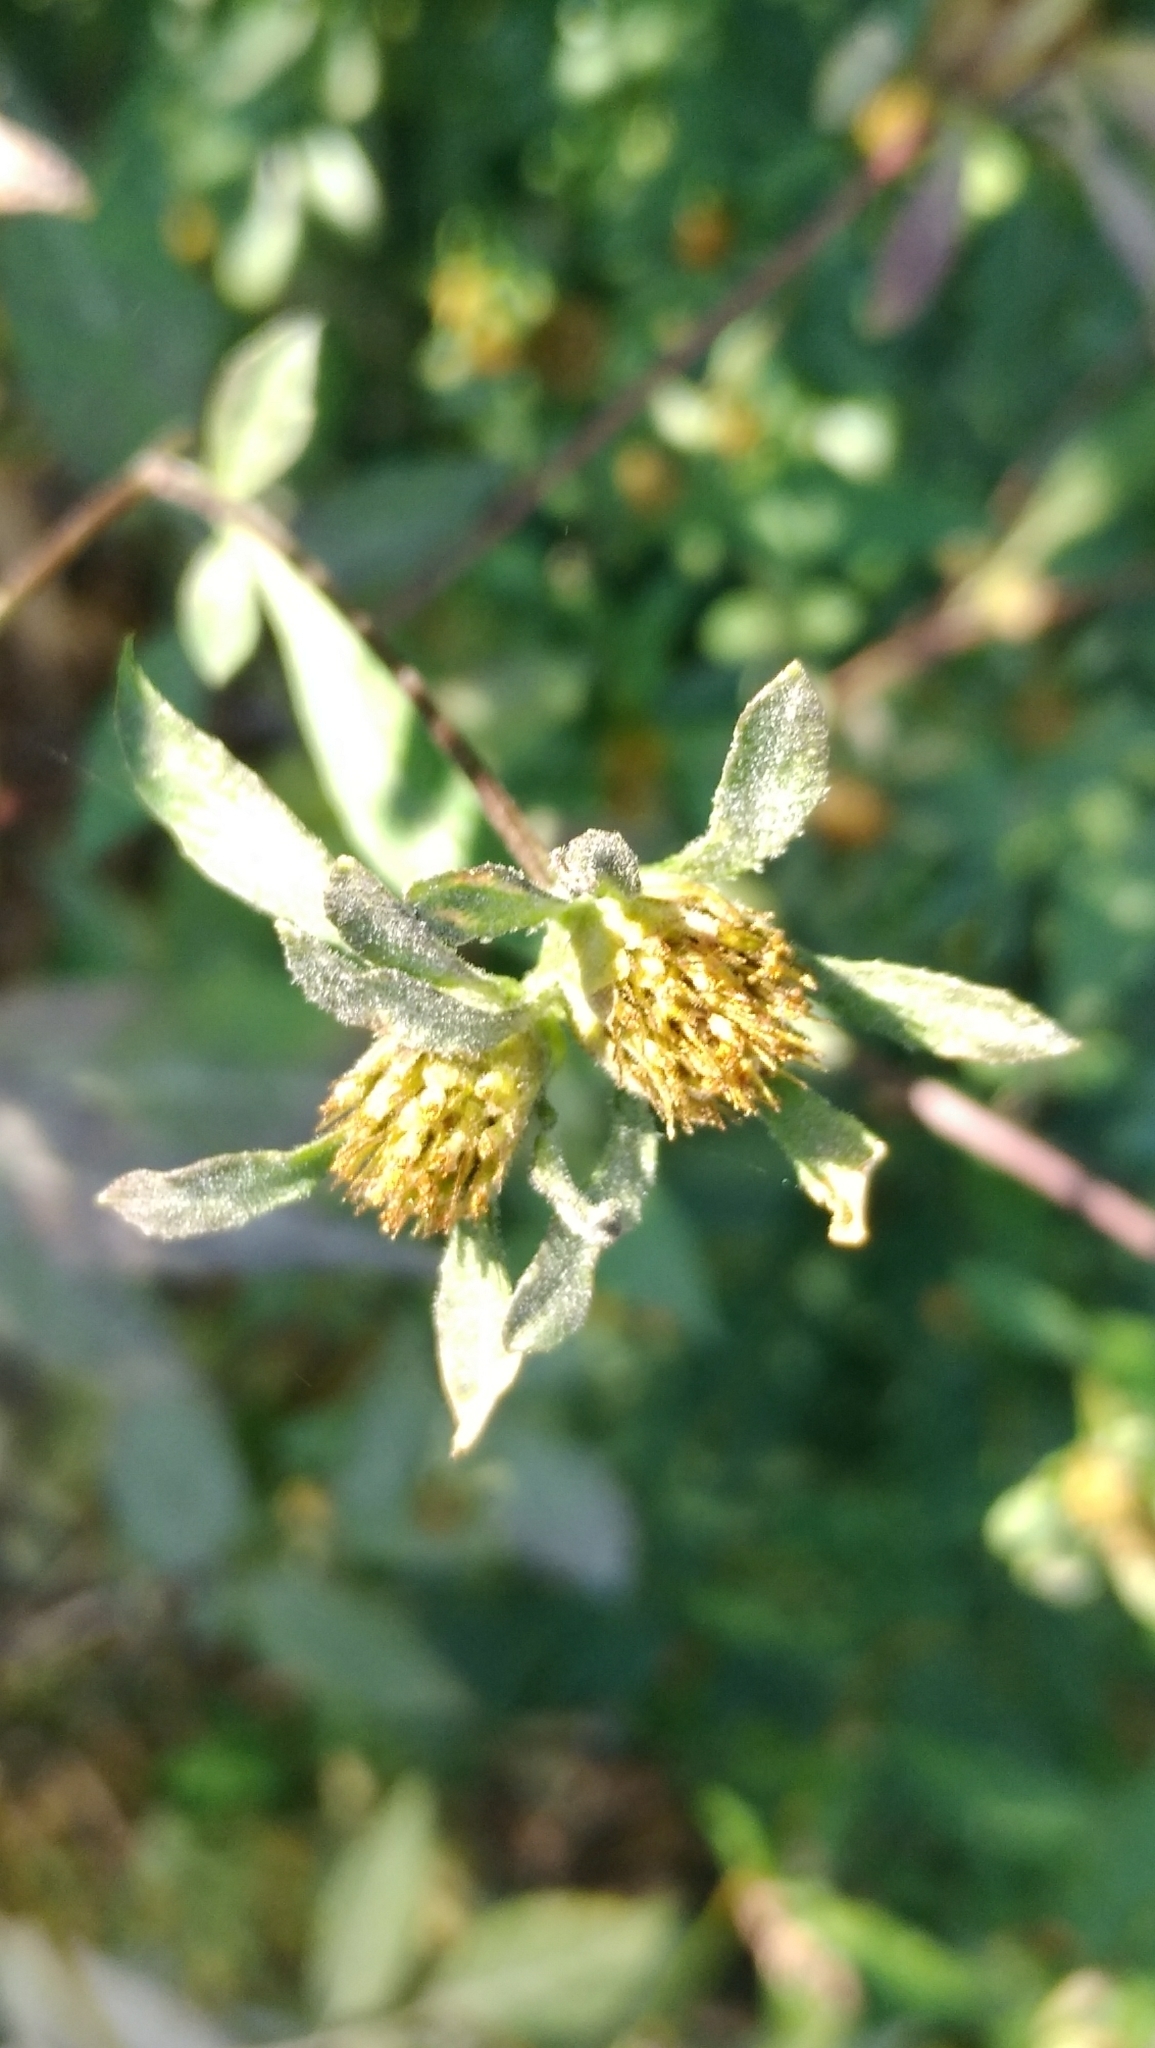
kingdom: Plantae
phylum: Tracheophyta
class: Magnoliopsida
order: Asterales
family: Asteraceae
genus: Bidens
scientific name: Bidens frondosa
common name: Beggarticks
